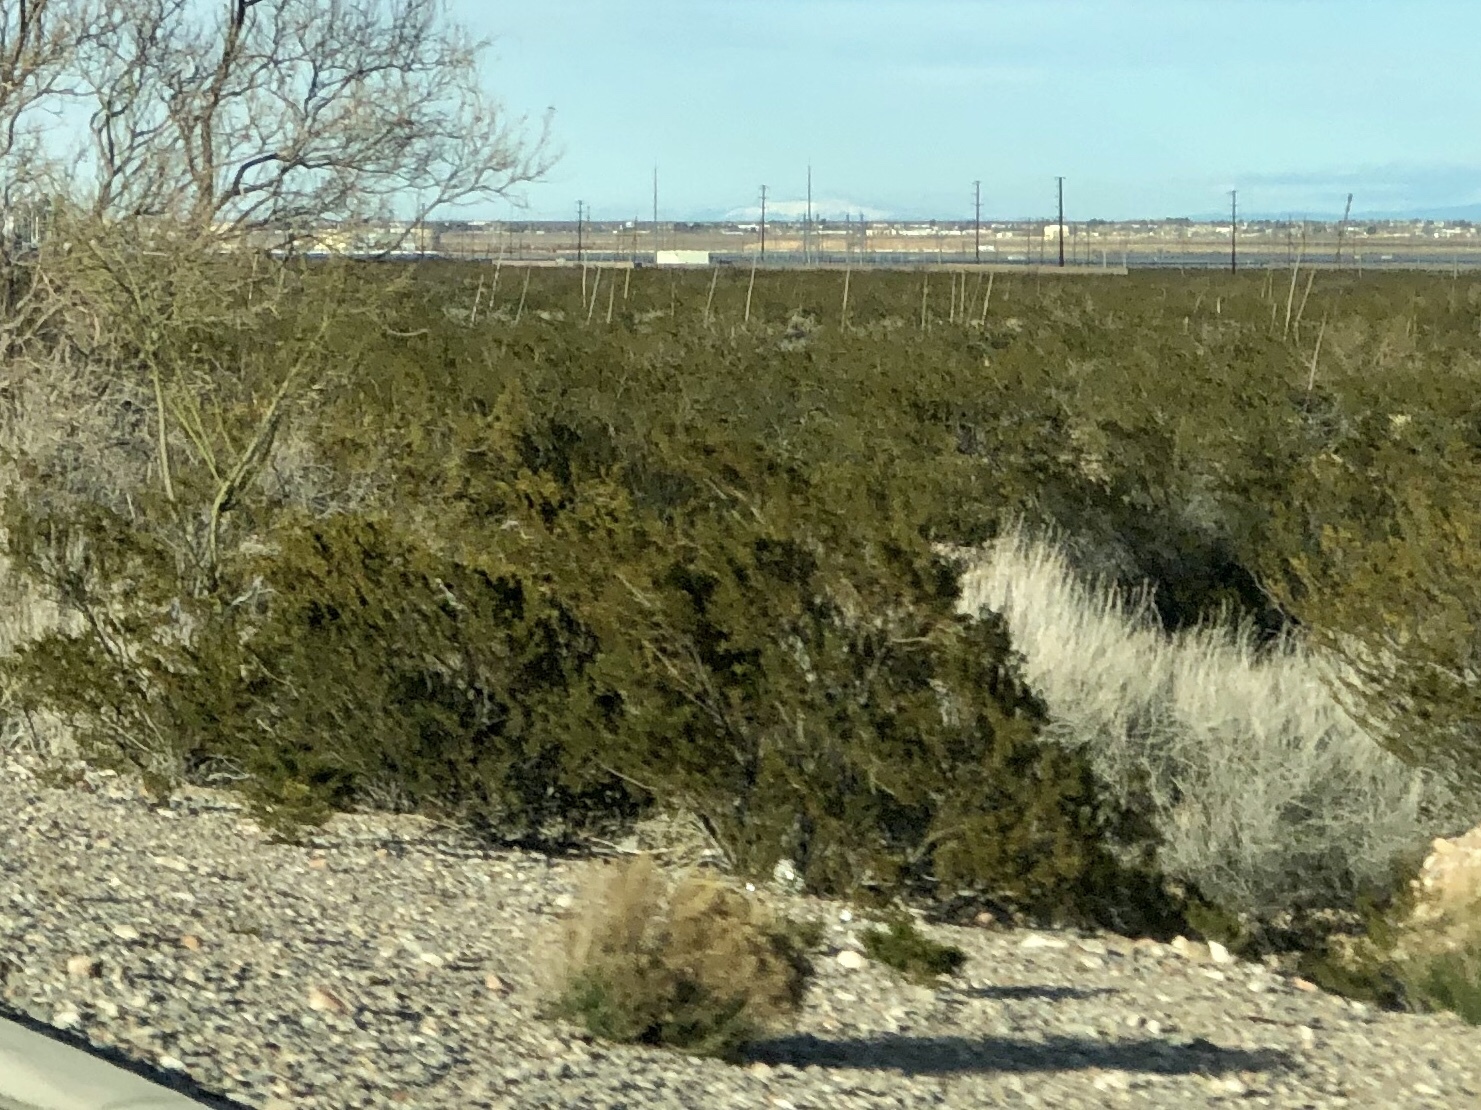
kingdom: Plantae
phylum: Tracheophyta
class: Magnoliopsida
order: Zygophyllales
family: Zygophyllaceae
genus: Larrea
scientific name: Larrea tridentata
